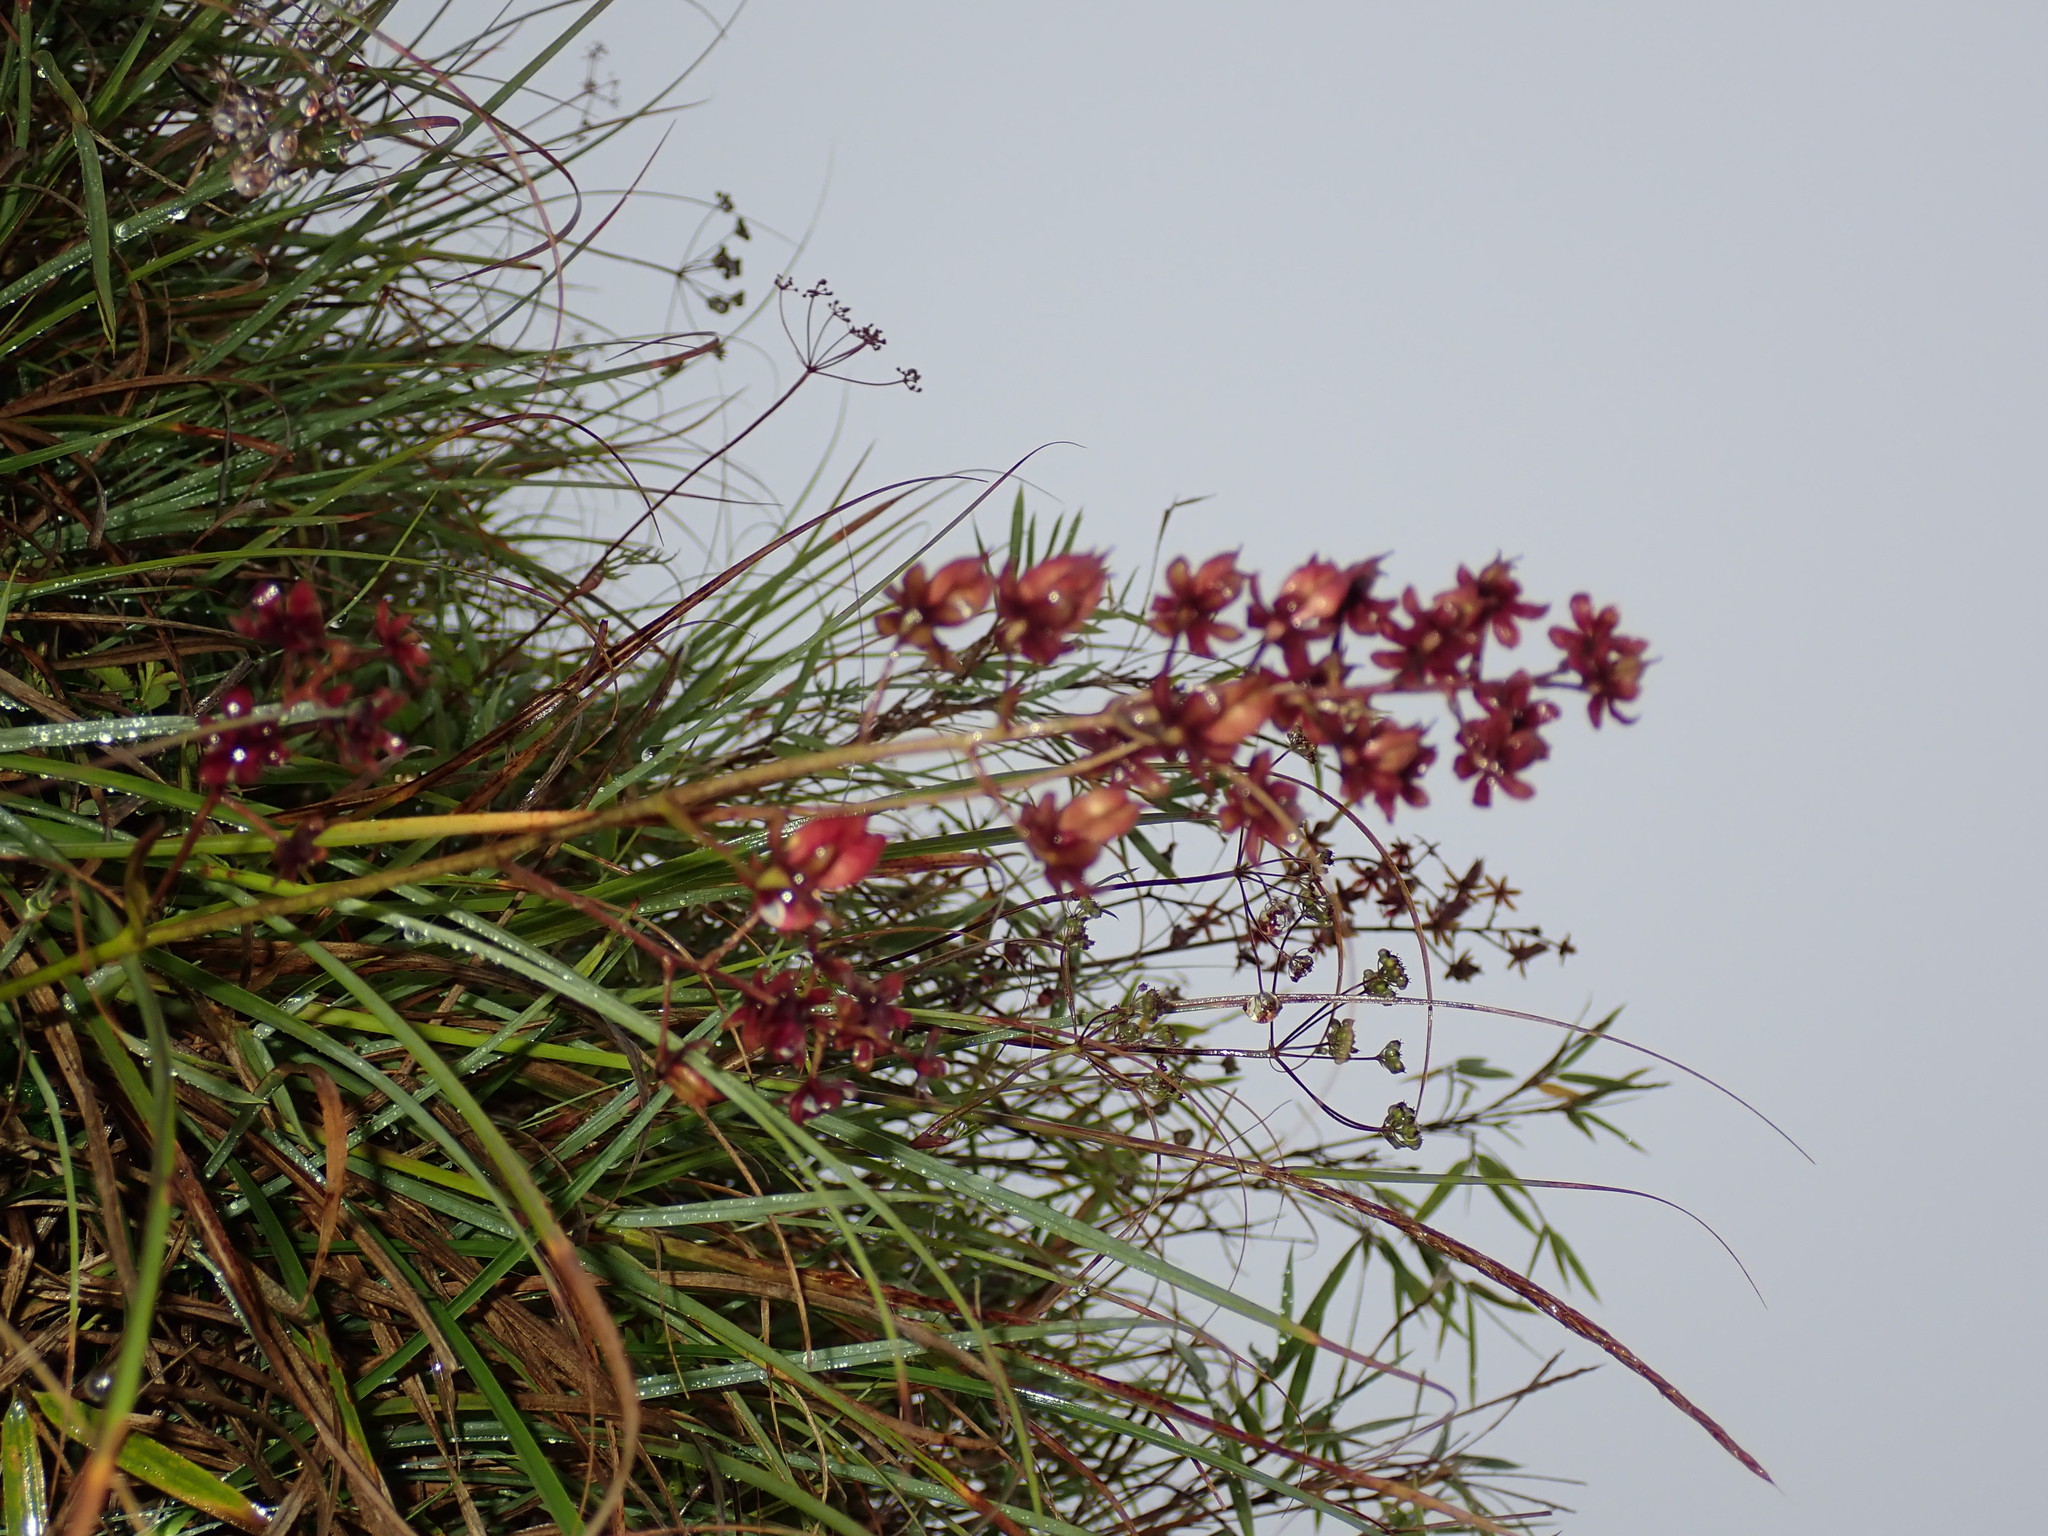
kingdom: Plantae
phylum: Tracheophyta
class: Liliopsida
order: Liliales
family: Melanthiaceae
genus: Veratrum
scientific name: Veratrum formosanum
